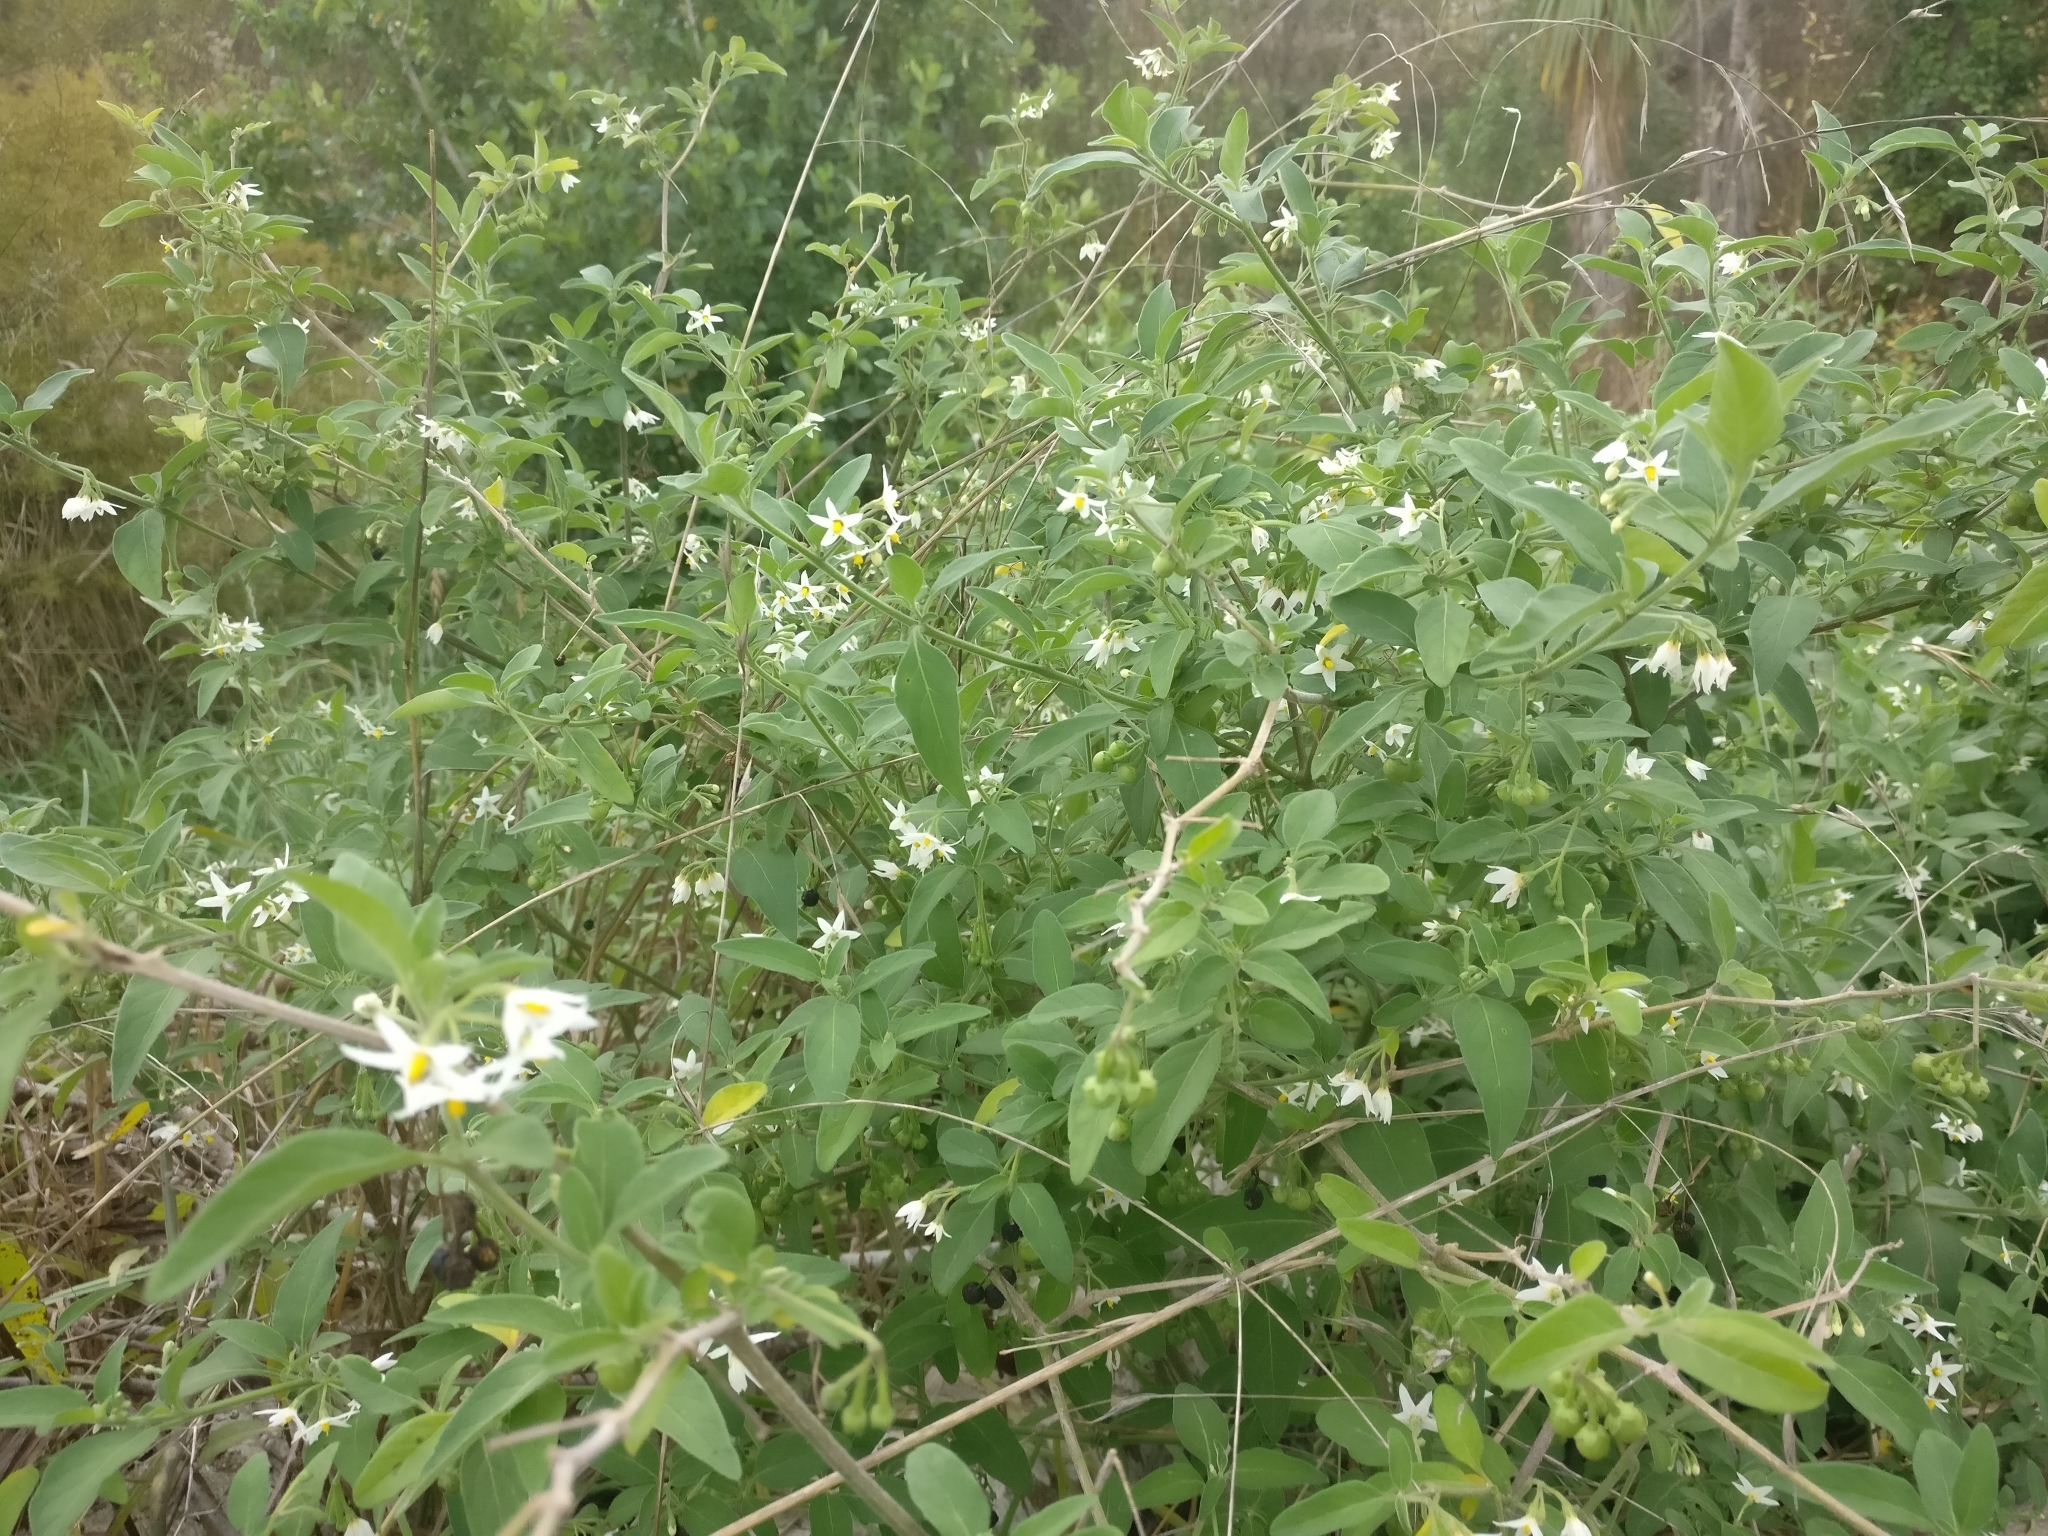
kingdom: Plantae
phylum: Tracheophyta
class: Magnoliopsida
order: Solanales
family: Solanaceae
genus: Solanum
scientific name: Solanum chenopodioides
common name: Tall nightshade
